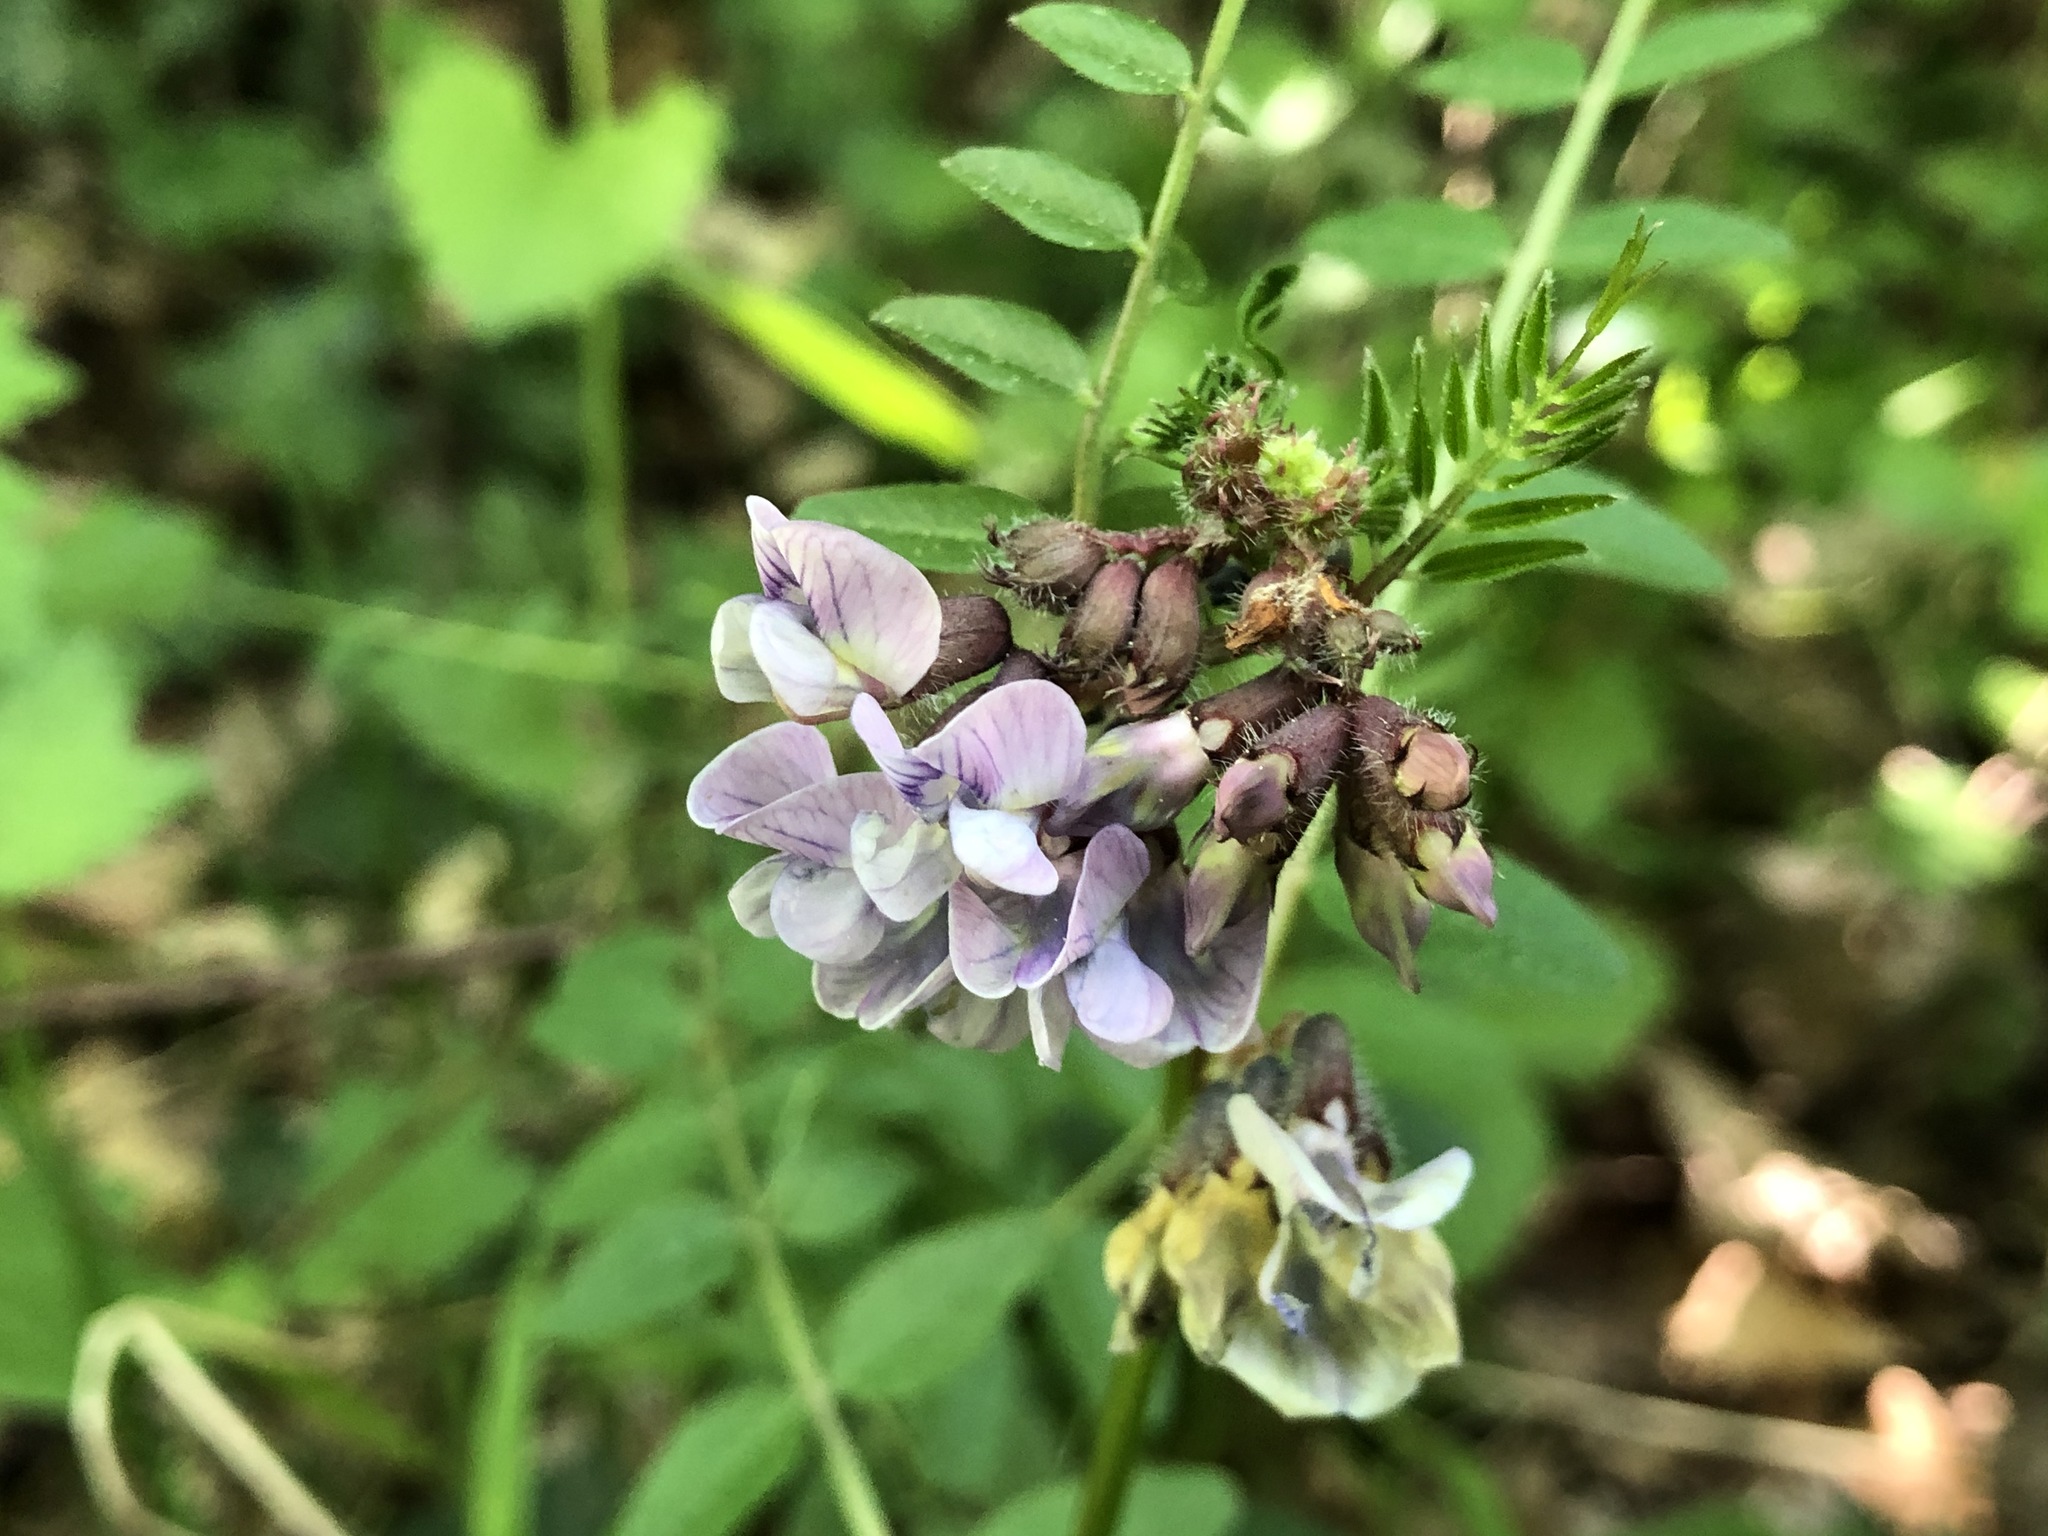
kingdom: Plantae
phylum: Tracheophyta
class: Magnoliopsida
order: Fabales
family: Fabaceae
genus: Vicia
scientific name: Vicia sepium
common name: Bush vetch
